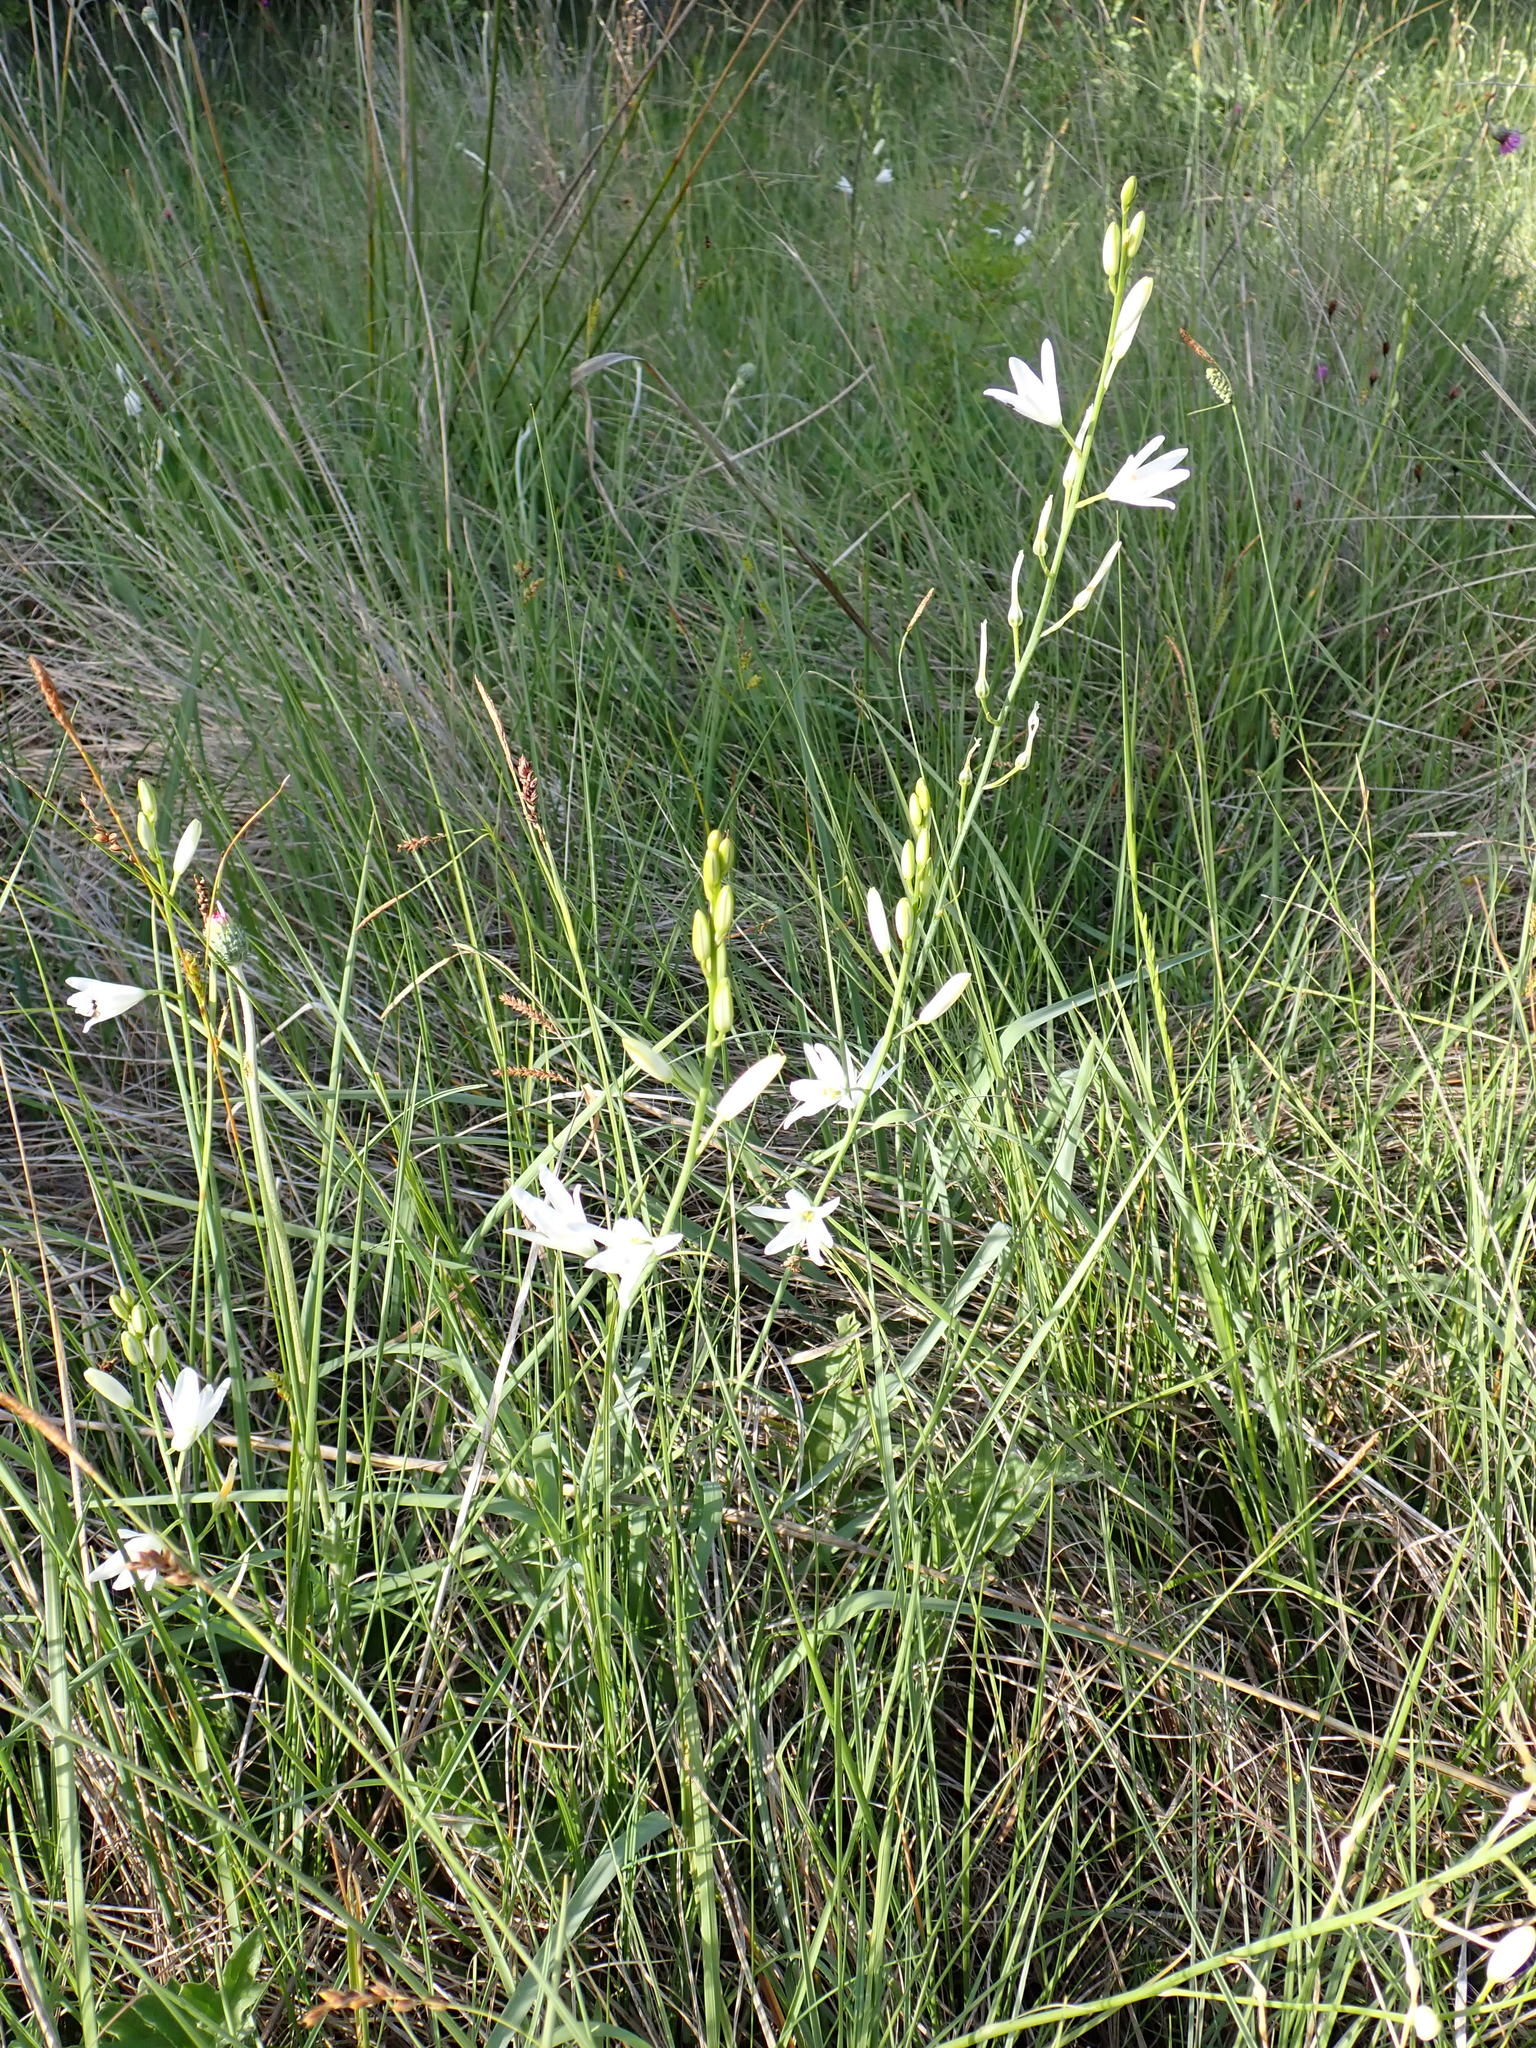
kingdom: Plantae
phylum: Tracheophyta
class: Liliopsida
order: Asparagales
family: Asparagaceae
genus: Anthericum
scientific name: Anthericum liliago
